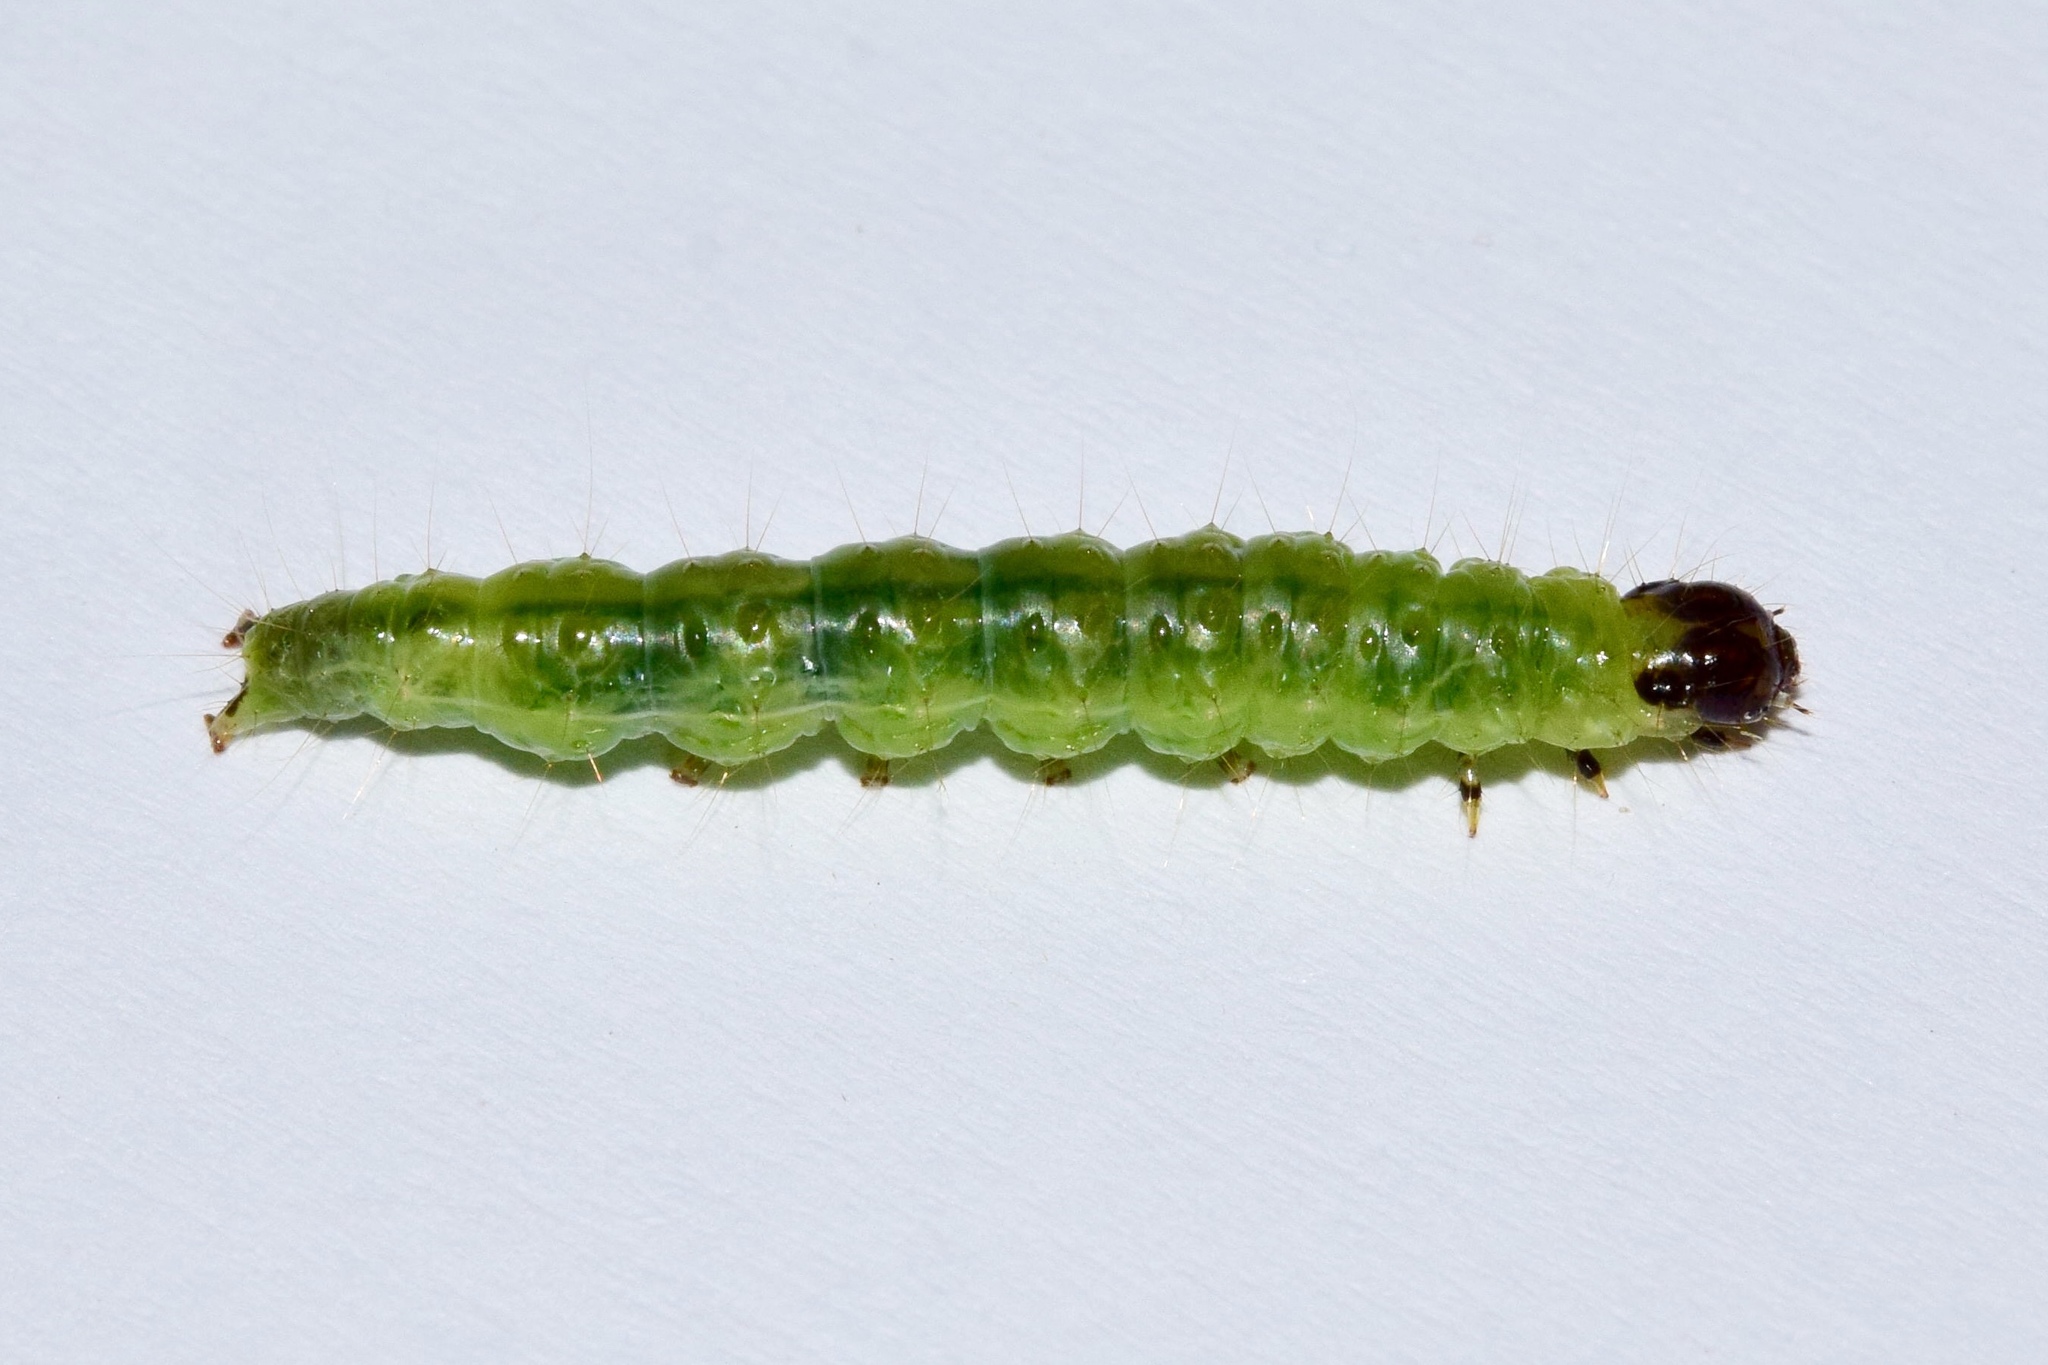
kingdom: Animalia
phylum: Arthropoda
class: Insecta
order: Lepidoptera
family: Crambidae
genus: Syllepte
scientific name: Syllepte polycymalis
